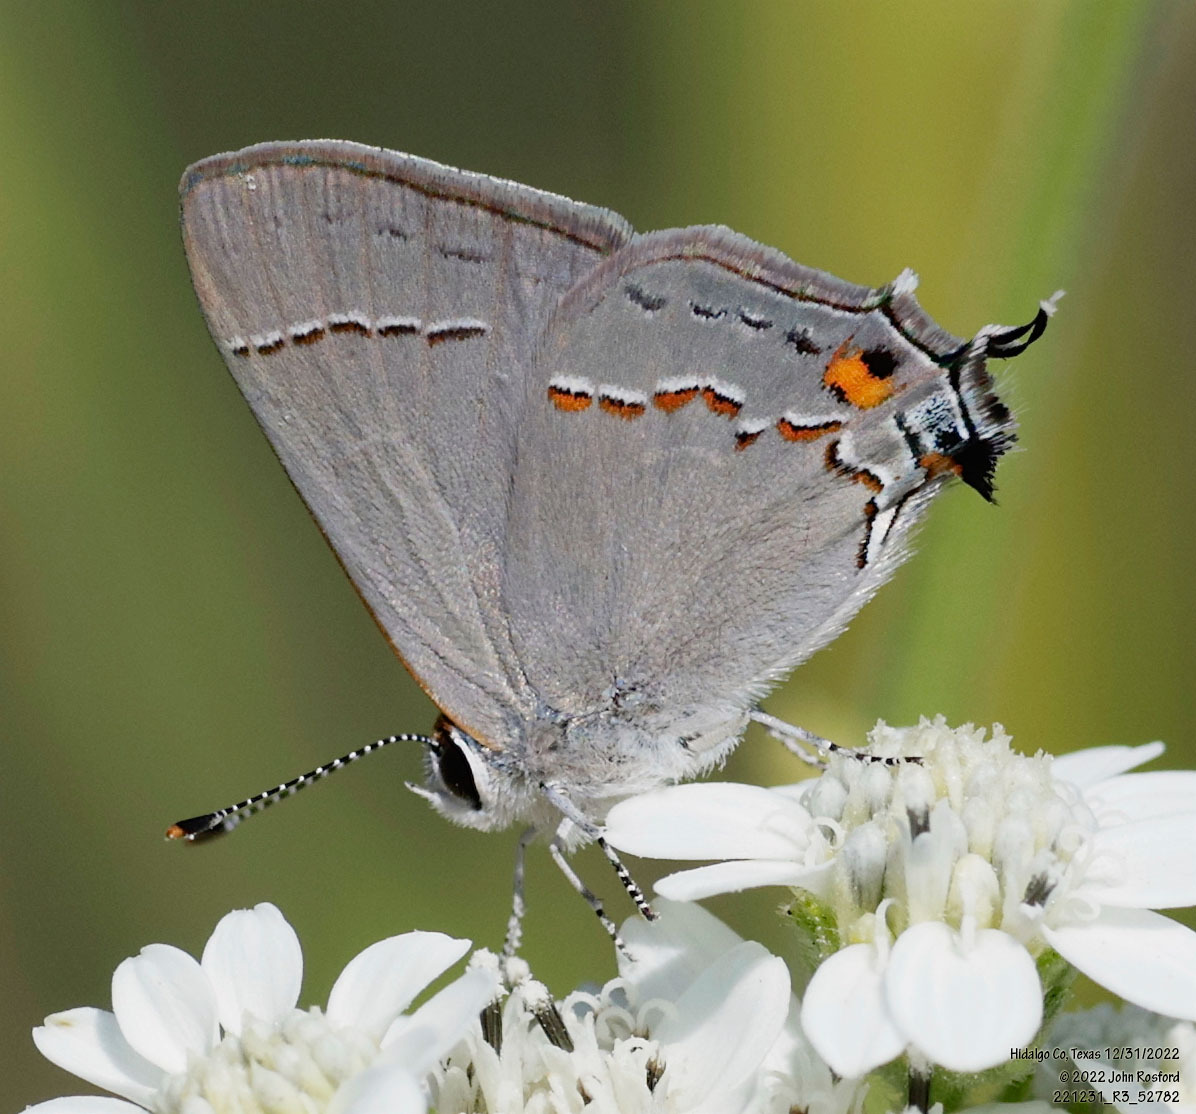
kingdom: Animalia
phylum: Arthropoda
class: Insecta
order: Lepidoptera
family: Lycaenidae
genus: Strymon
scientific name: Strymon melinus
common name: Gray hairstreak
